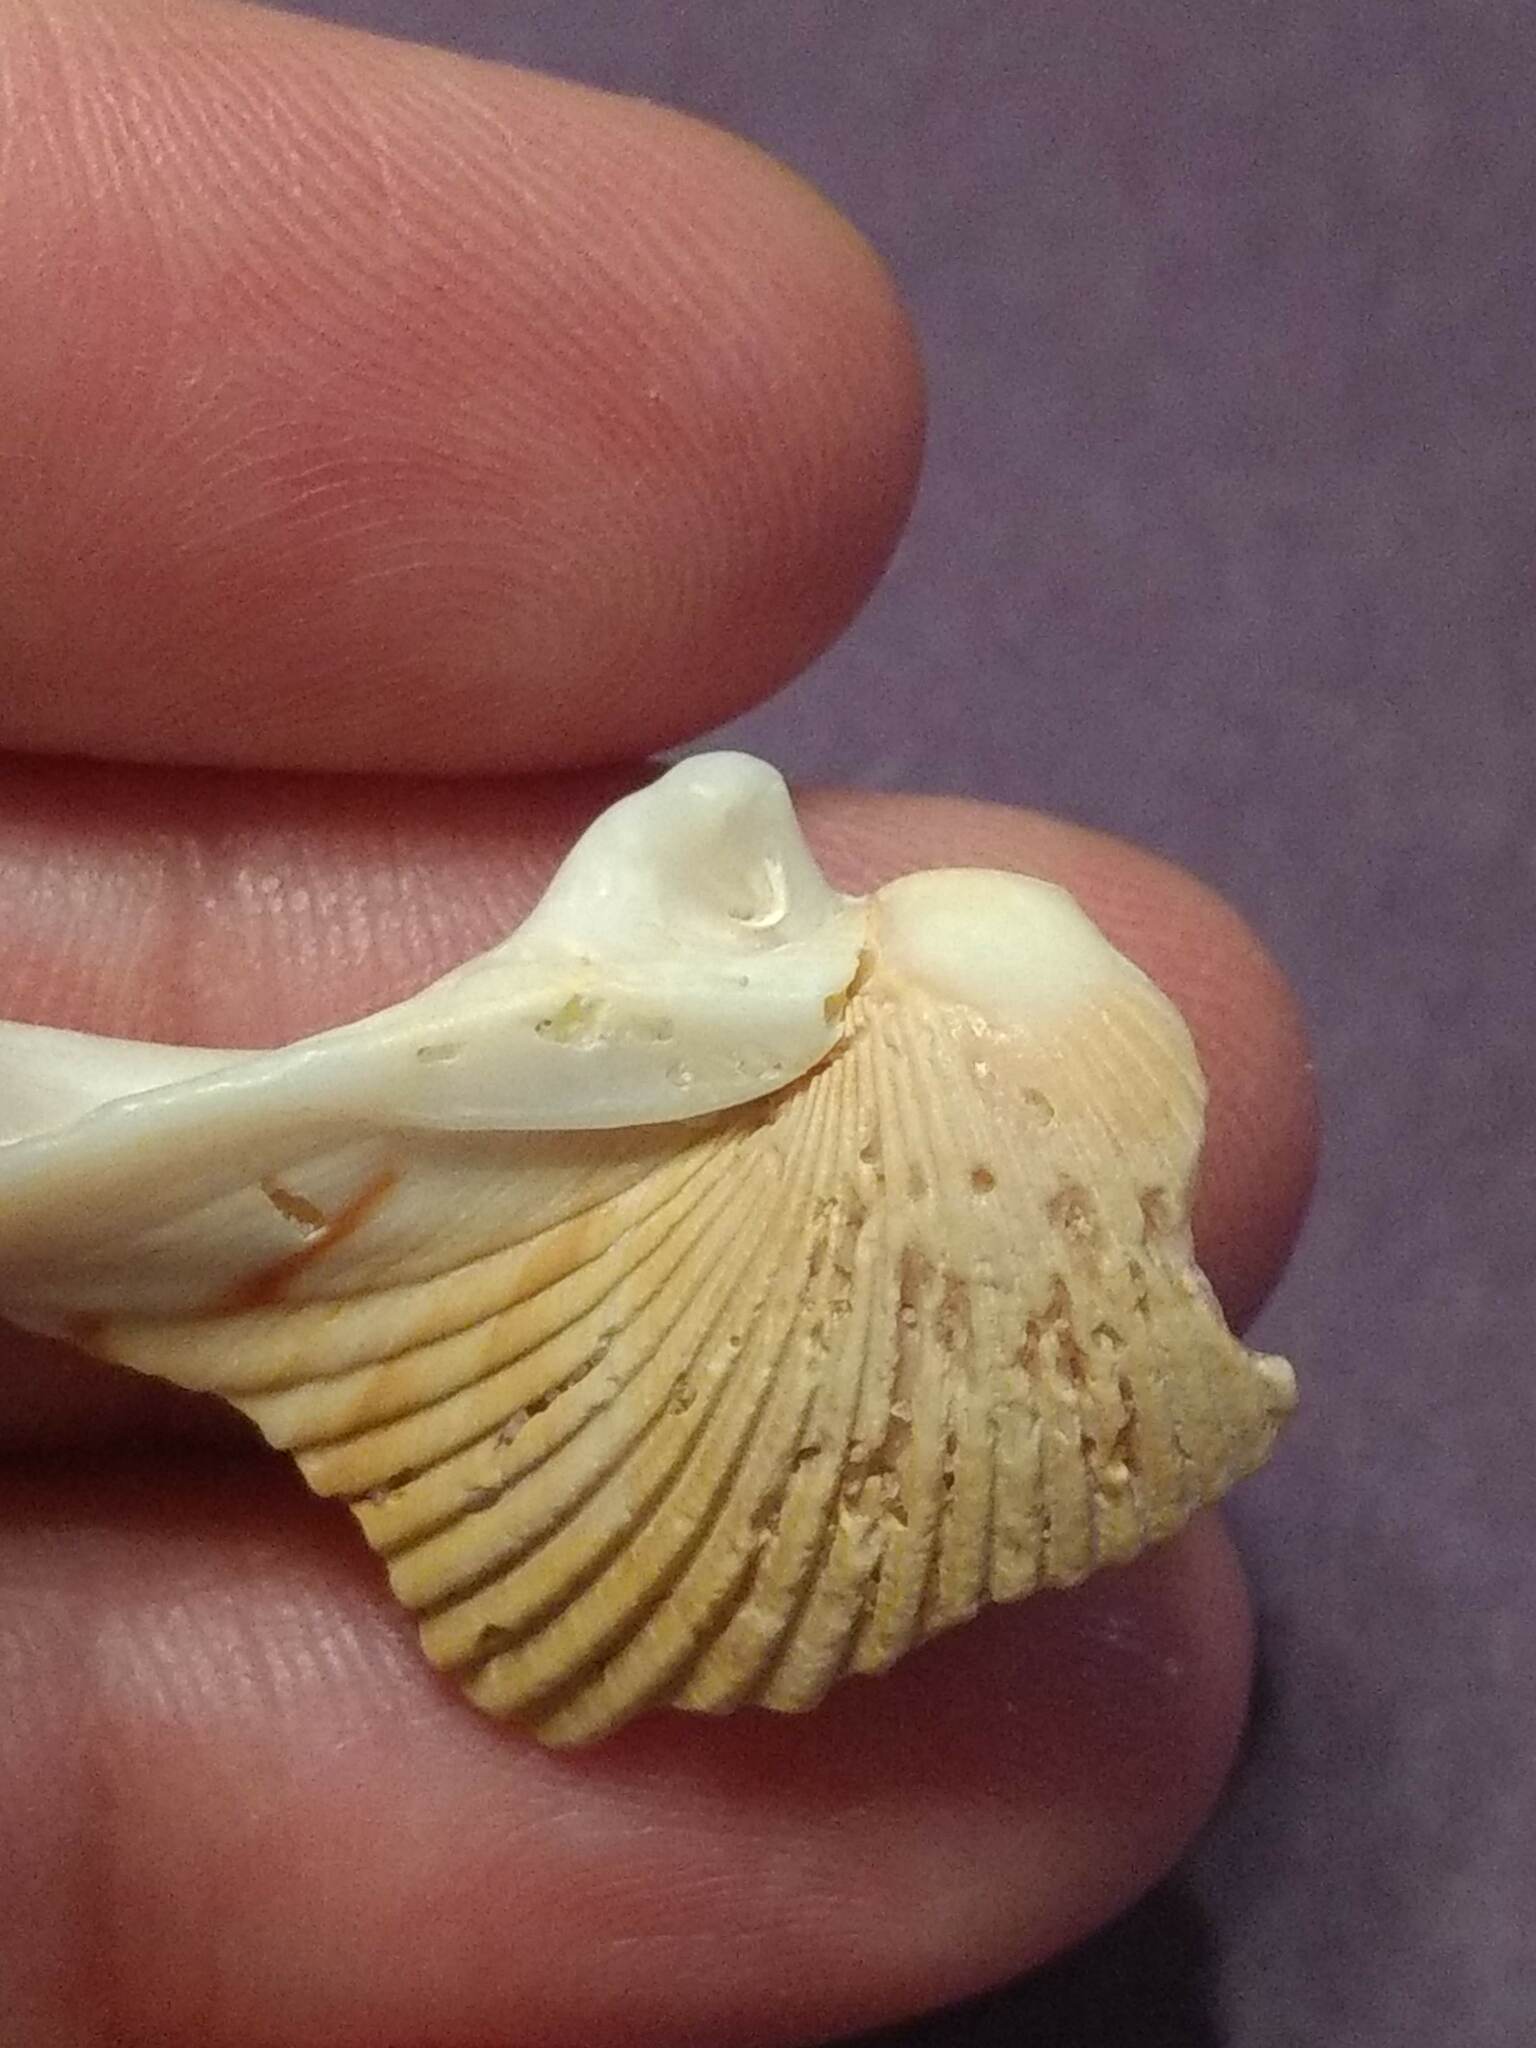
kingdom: Animalia
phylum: Mollusca
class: Bivalvia
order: Cardiida
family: Cardiidae
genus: Dinocardium
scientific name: Dinocardium robustum
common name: Atlantic giant cockle
